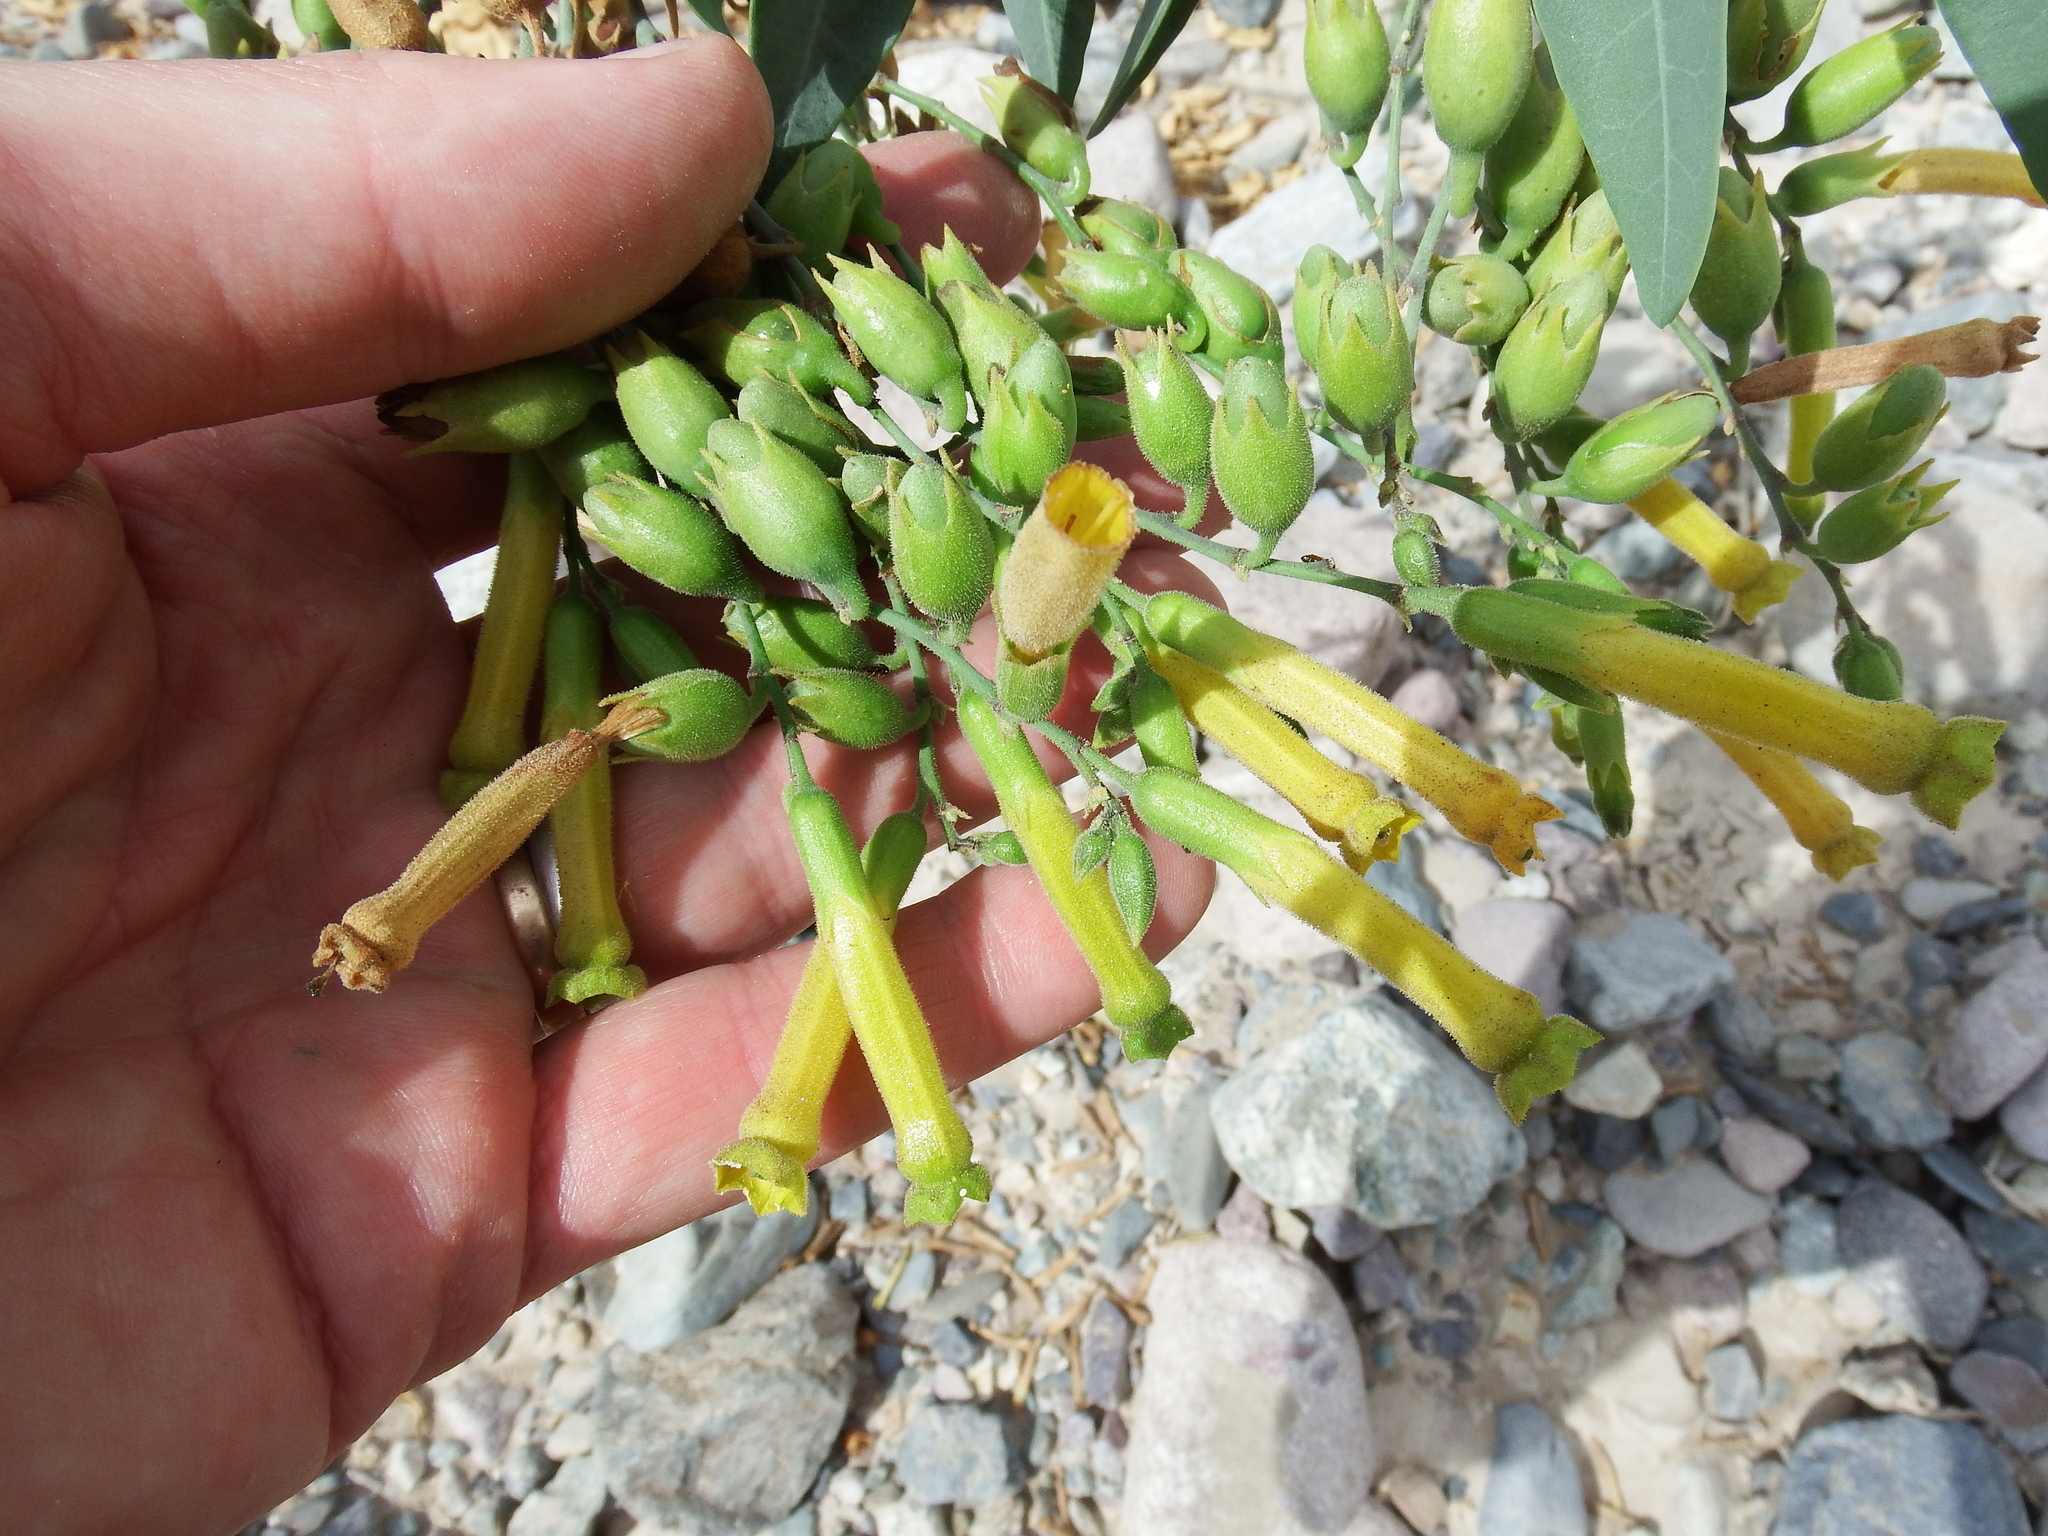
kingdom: Plantae
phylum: Tracheophyta
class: Magnoliopsida
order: Solanales
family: Solanaceae
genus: Nicotiana
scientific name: Nicotiana glauca
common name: Tree tobacco
